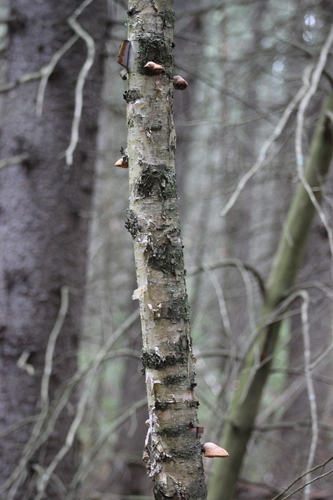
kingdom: Fungi
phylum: Basidiomycota
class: Agaricomycetes
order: Polyporales
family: Fomitopsidaceae
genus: Fomitopsis
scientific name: Fomitopsis betulina
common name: Birch polypore
